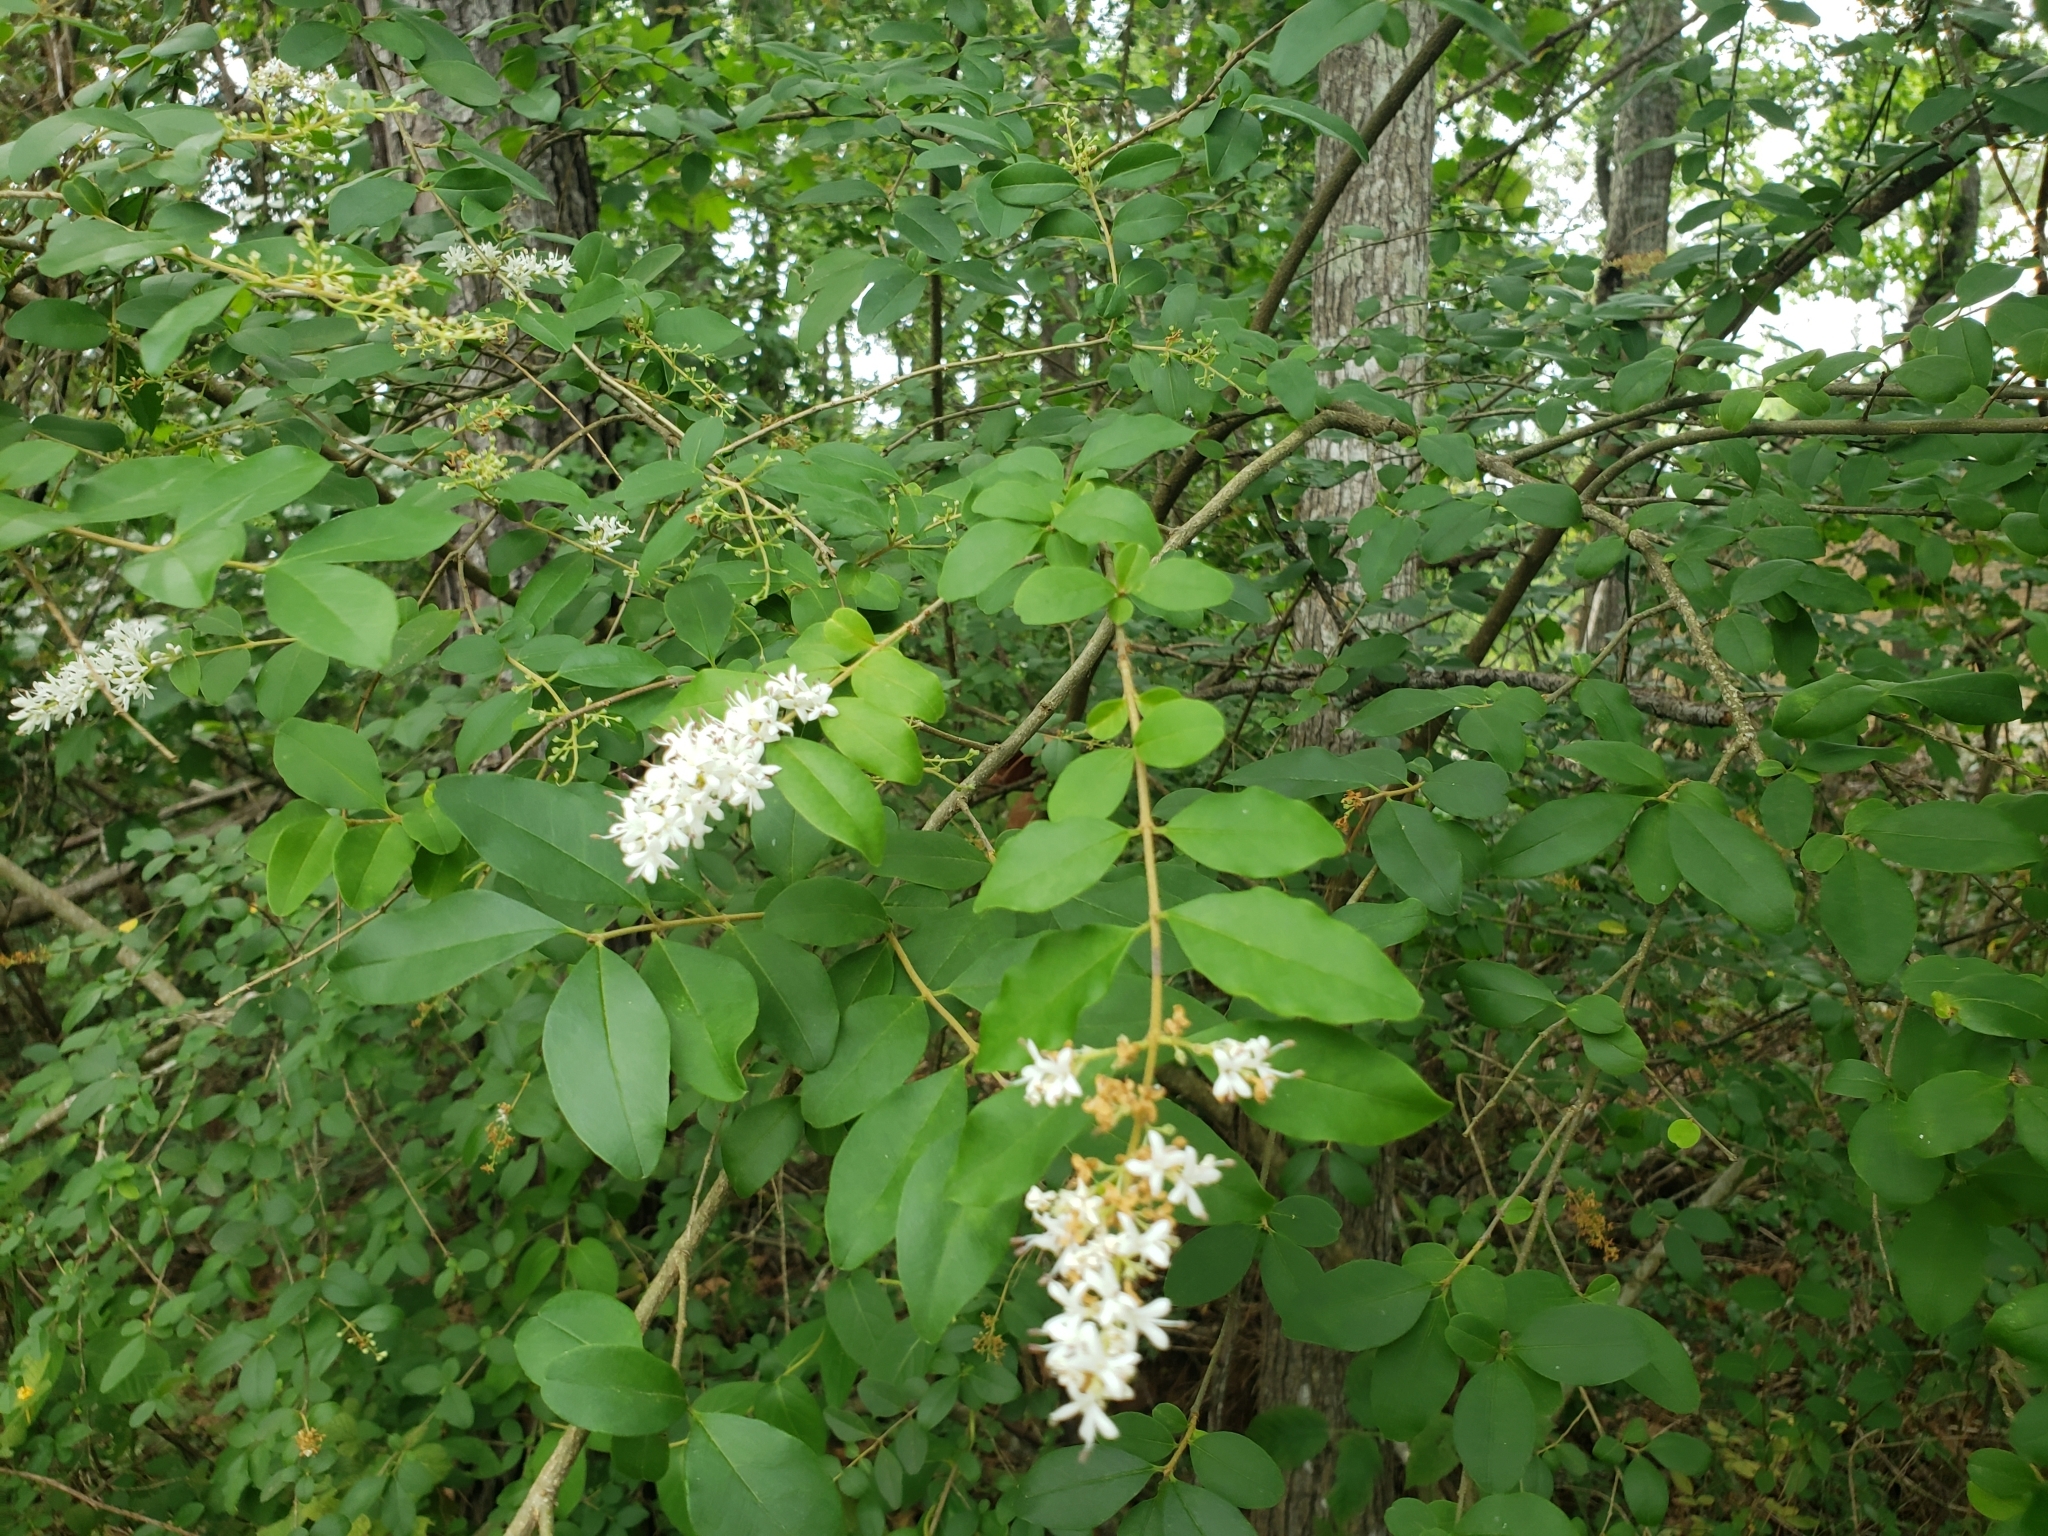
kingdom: Plantae
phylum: Tracheophyta
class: Magnoliopsida
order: Lamiales
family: Oleaceae
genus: Ligustrum
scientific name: Ligustrum sinense
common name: Chinese privet
